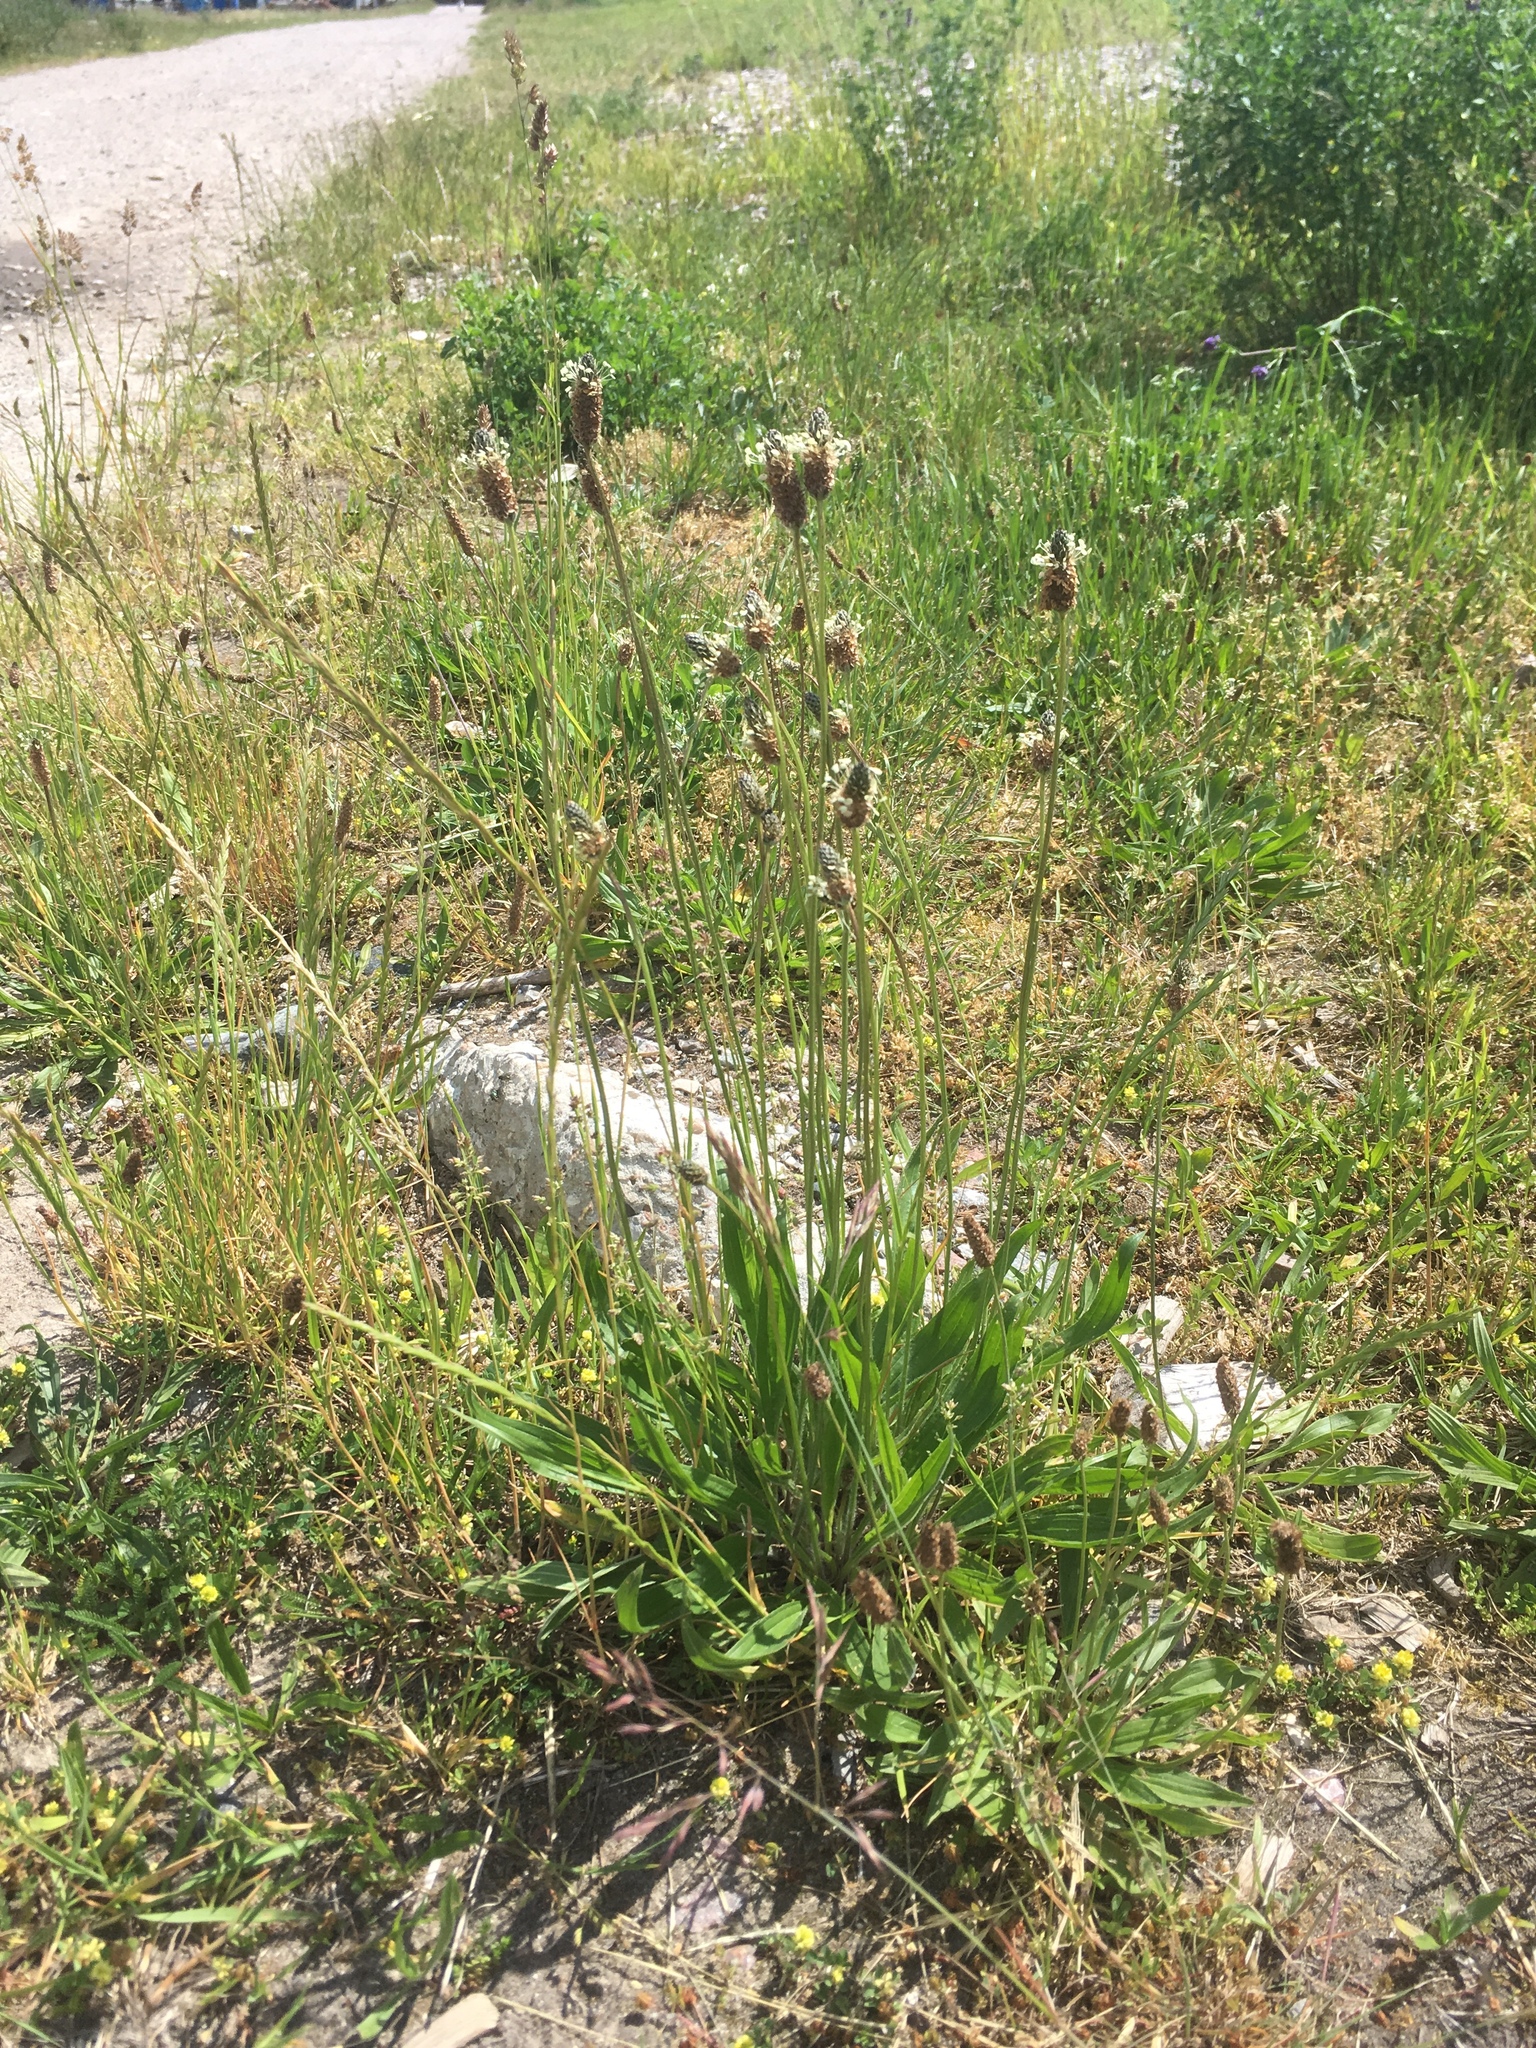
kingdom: Plantae
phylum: Tracheophyta
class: Magnoliopsida
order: Lamiales
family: Plantaginaceae
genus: Plantago
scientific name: Plantago lanceolata
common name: Ribwort plantain
